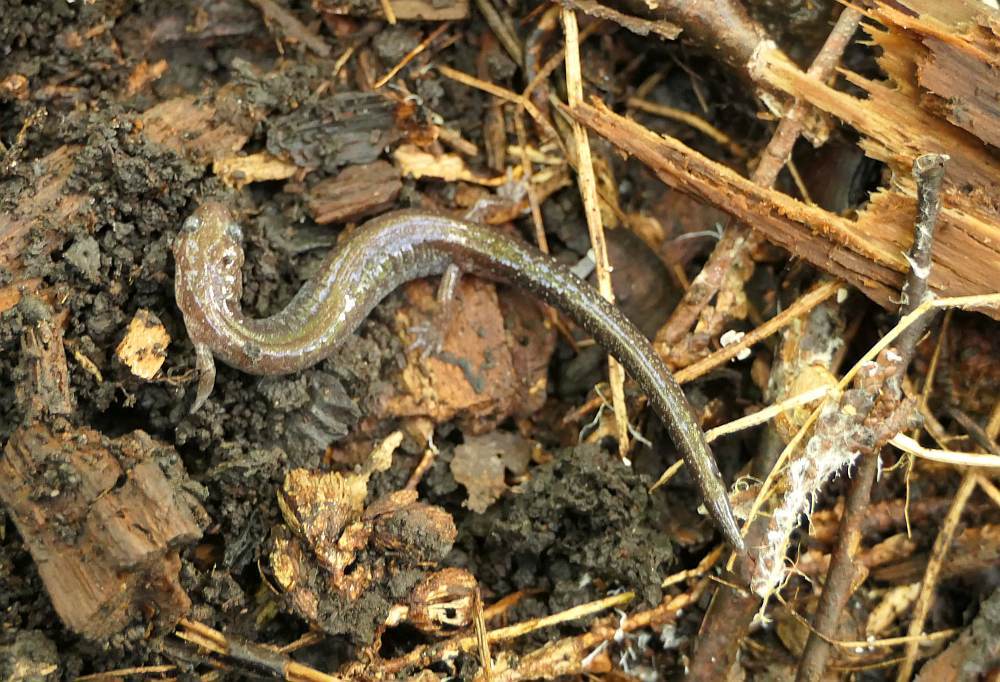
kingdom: Animalia
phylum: Chordata
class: Amphibia
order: Caudata
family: Plethodontidae
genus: Plethodon
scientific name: Plethodon cinereus
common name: Redback salamander
